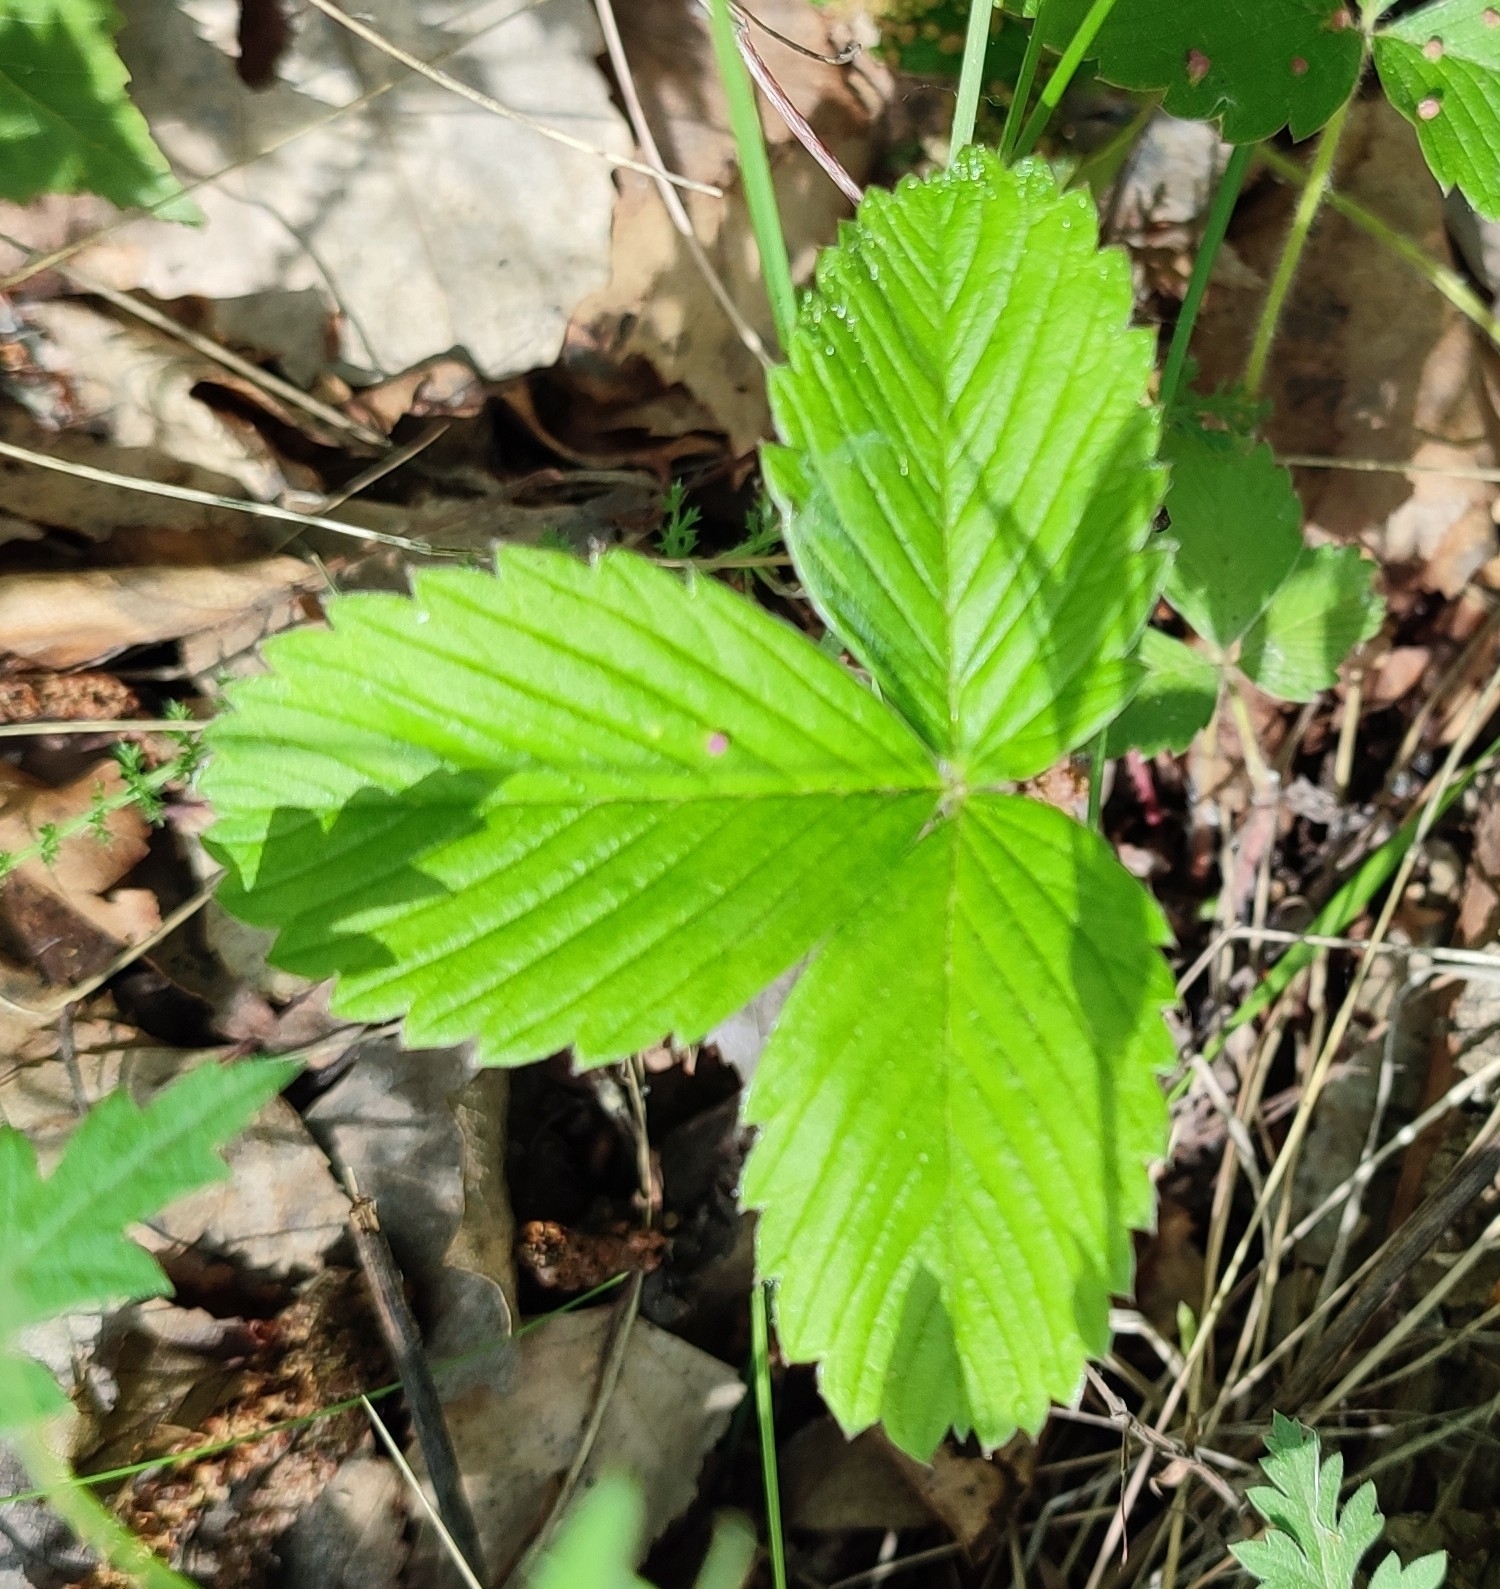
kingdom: Plantae
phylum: Tracheophyta
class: Magnoliopsida
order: Rosales
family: Rosaceae
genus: Fragaria
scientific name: Fragaria viridis
